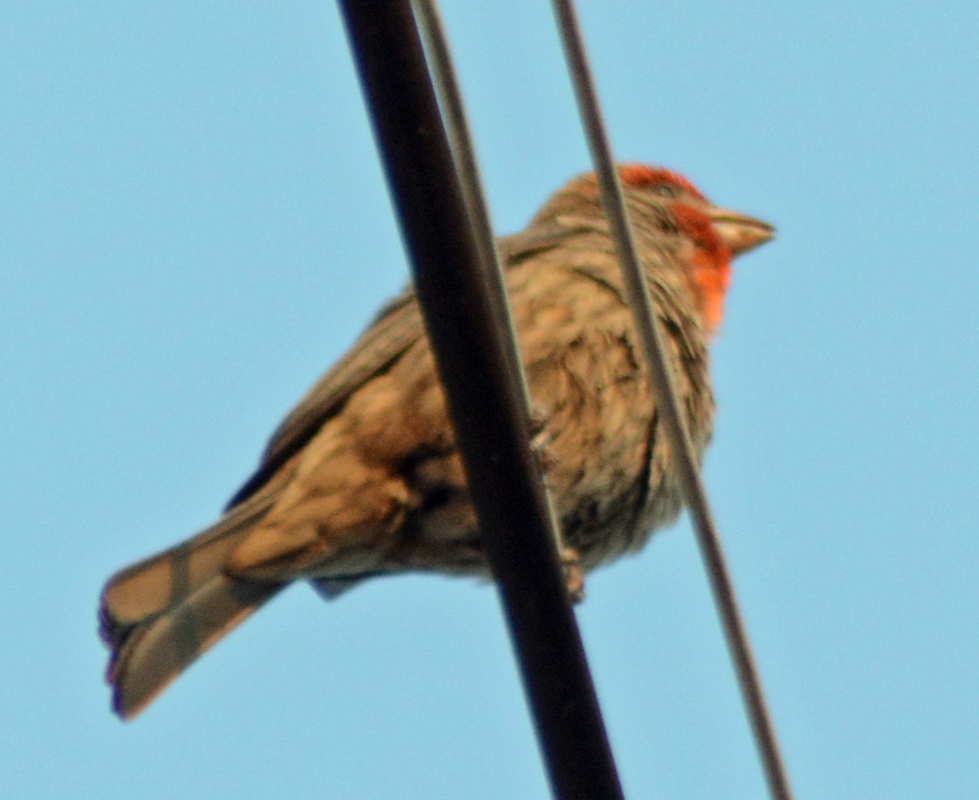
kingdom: Animalia
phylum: Chordata
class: Aves
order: Passeriformes
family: Fringillidae
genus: Haemorhous
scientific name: Haemorhous mexicanus
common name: House finch
